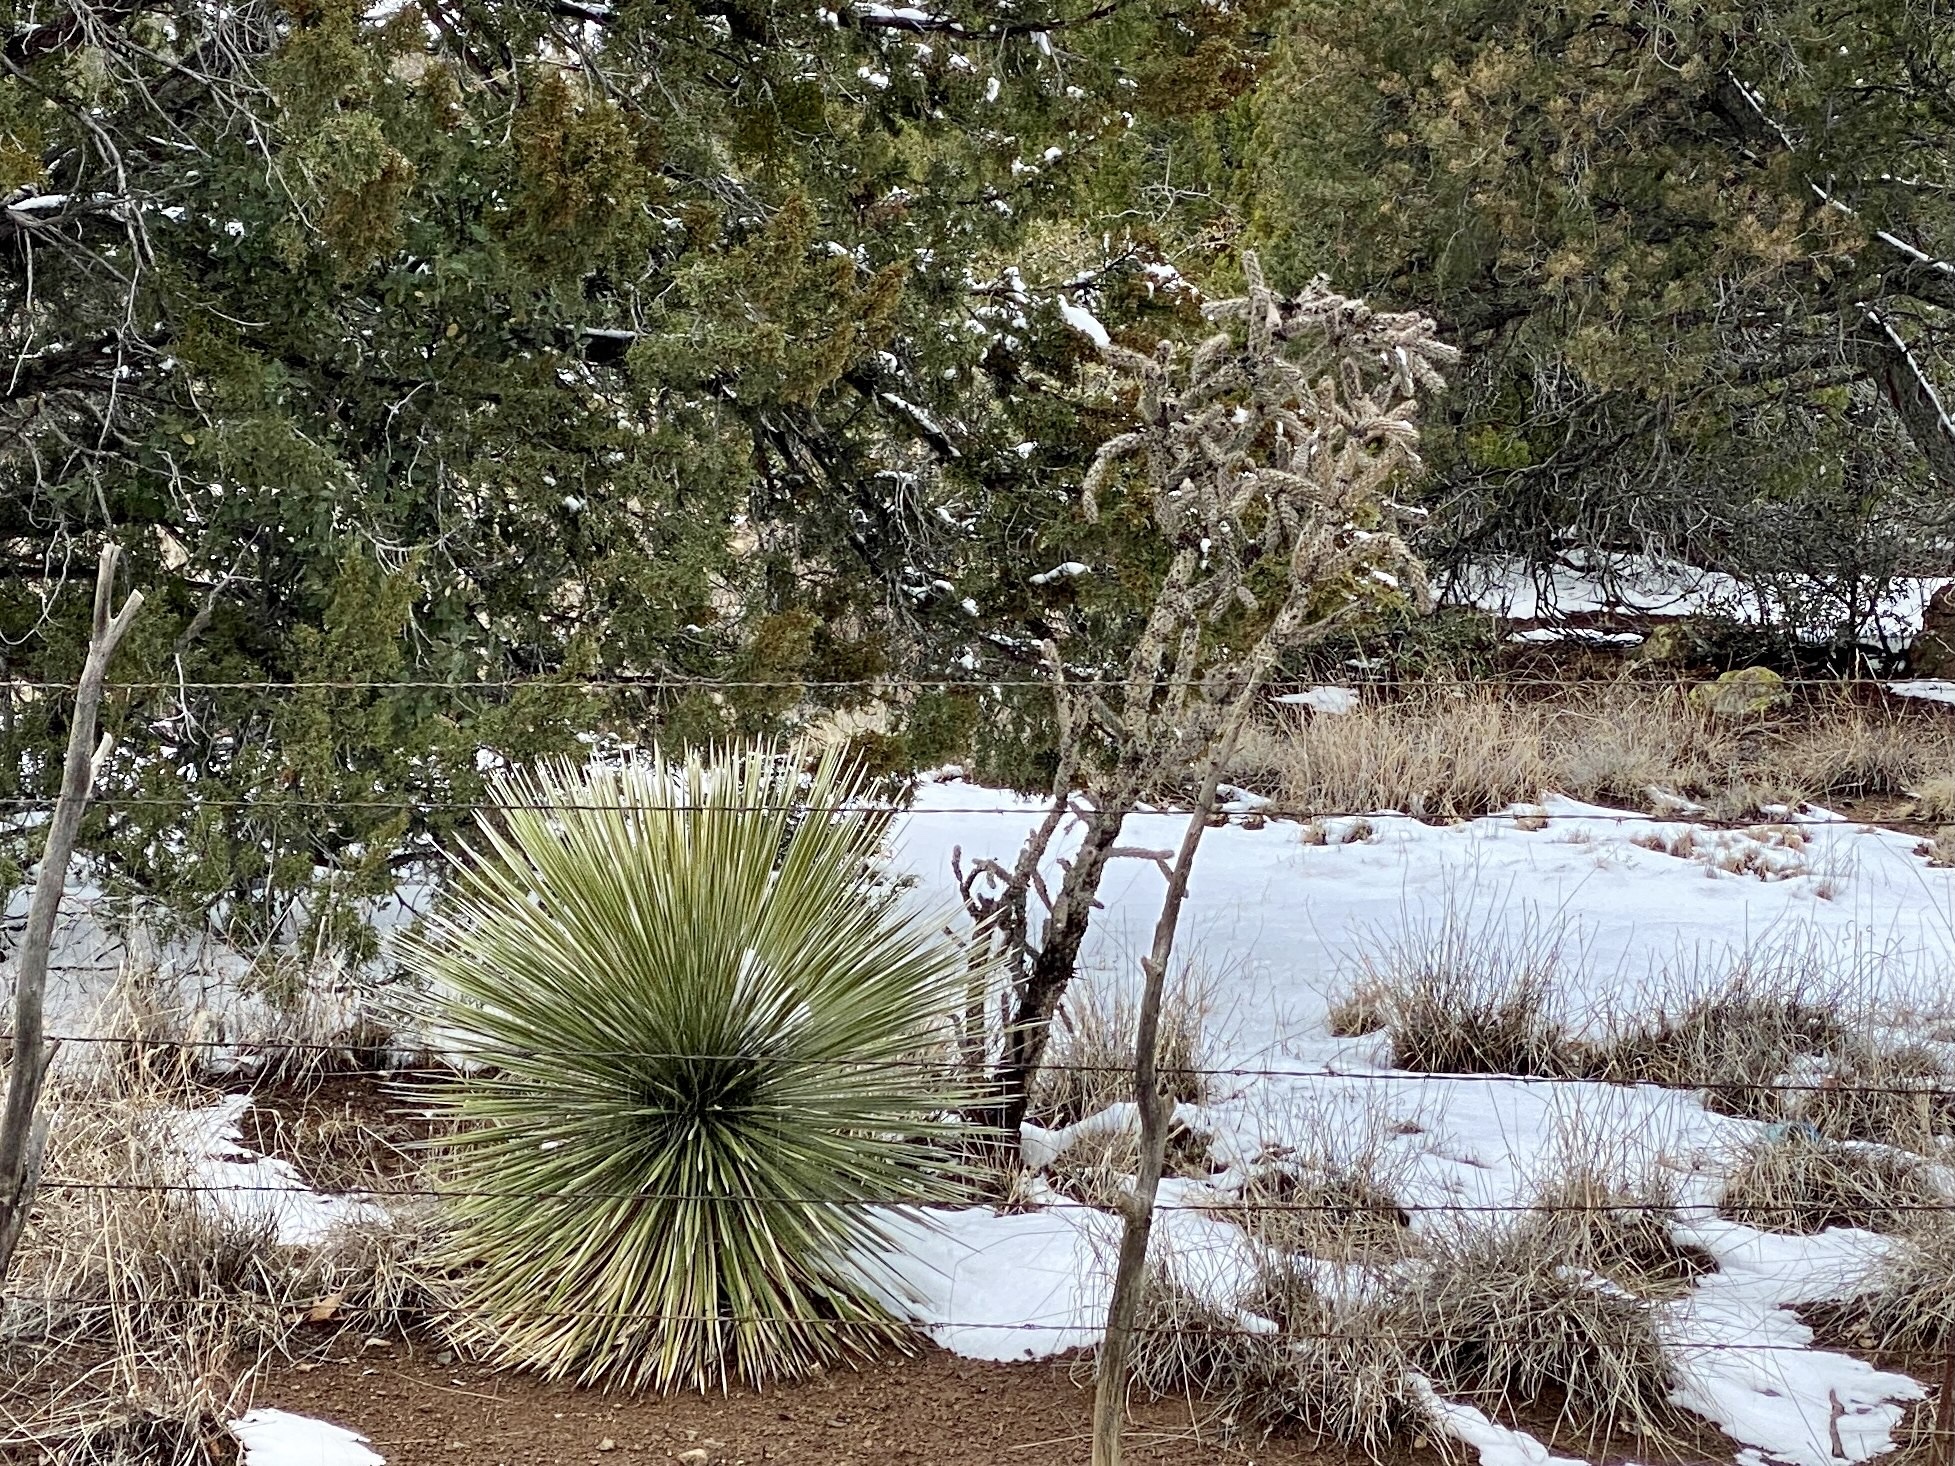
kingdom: Plantae
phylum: Tracheophyta
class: Liliopsida
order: Asparagales
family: Asparagaceae
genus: Yucca
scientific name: Yucca elata
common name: Palmella
